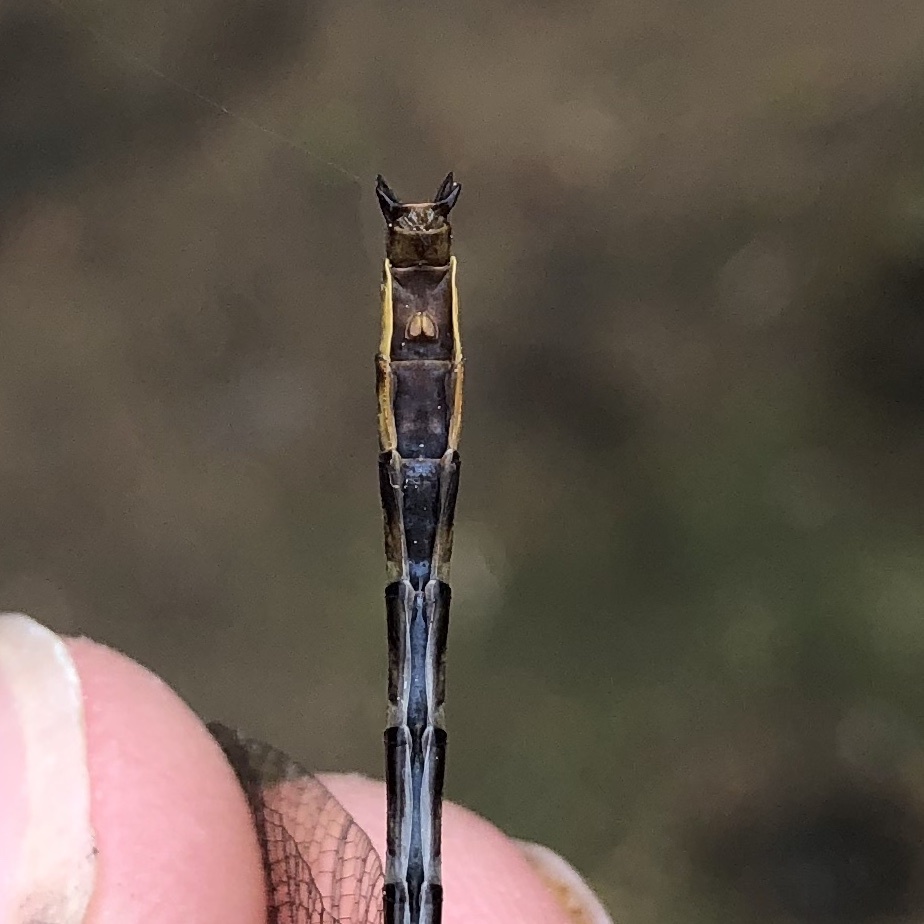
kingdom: Animalia
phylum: Arthropoda
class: Insecta
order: Odonata
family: Gomphidae
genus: Phanogomphus
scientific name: Phanogomphus exilis
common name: Lancet clubtail
